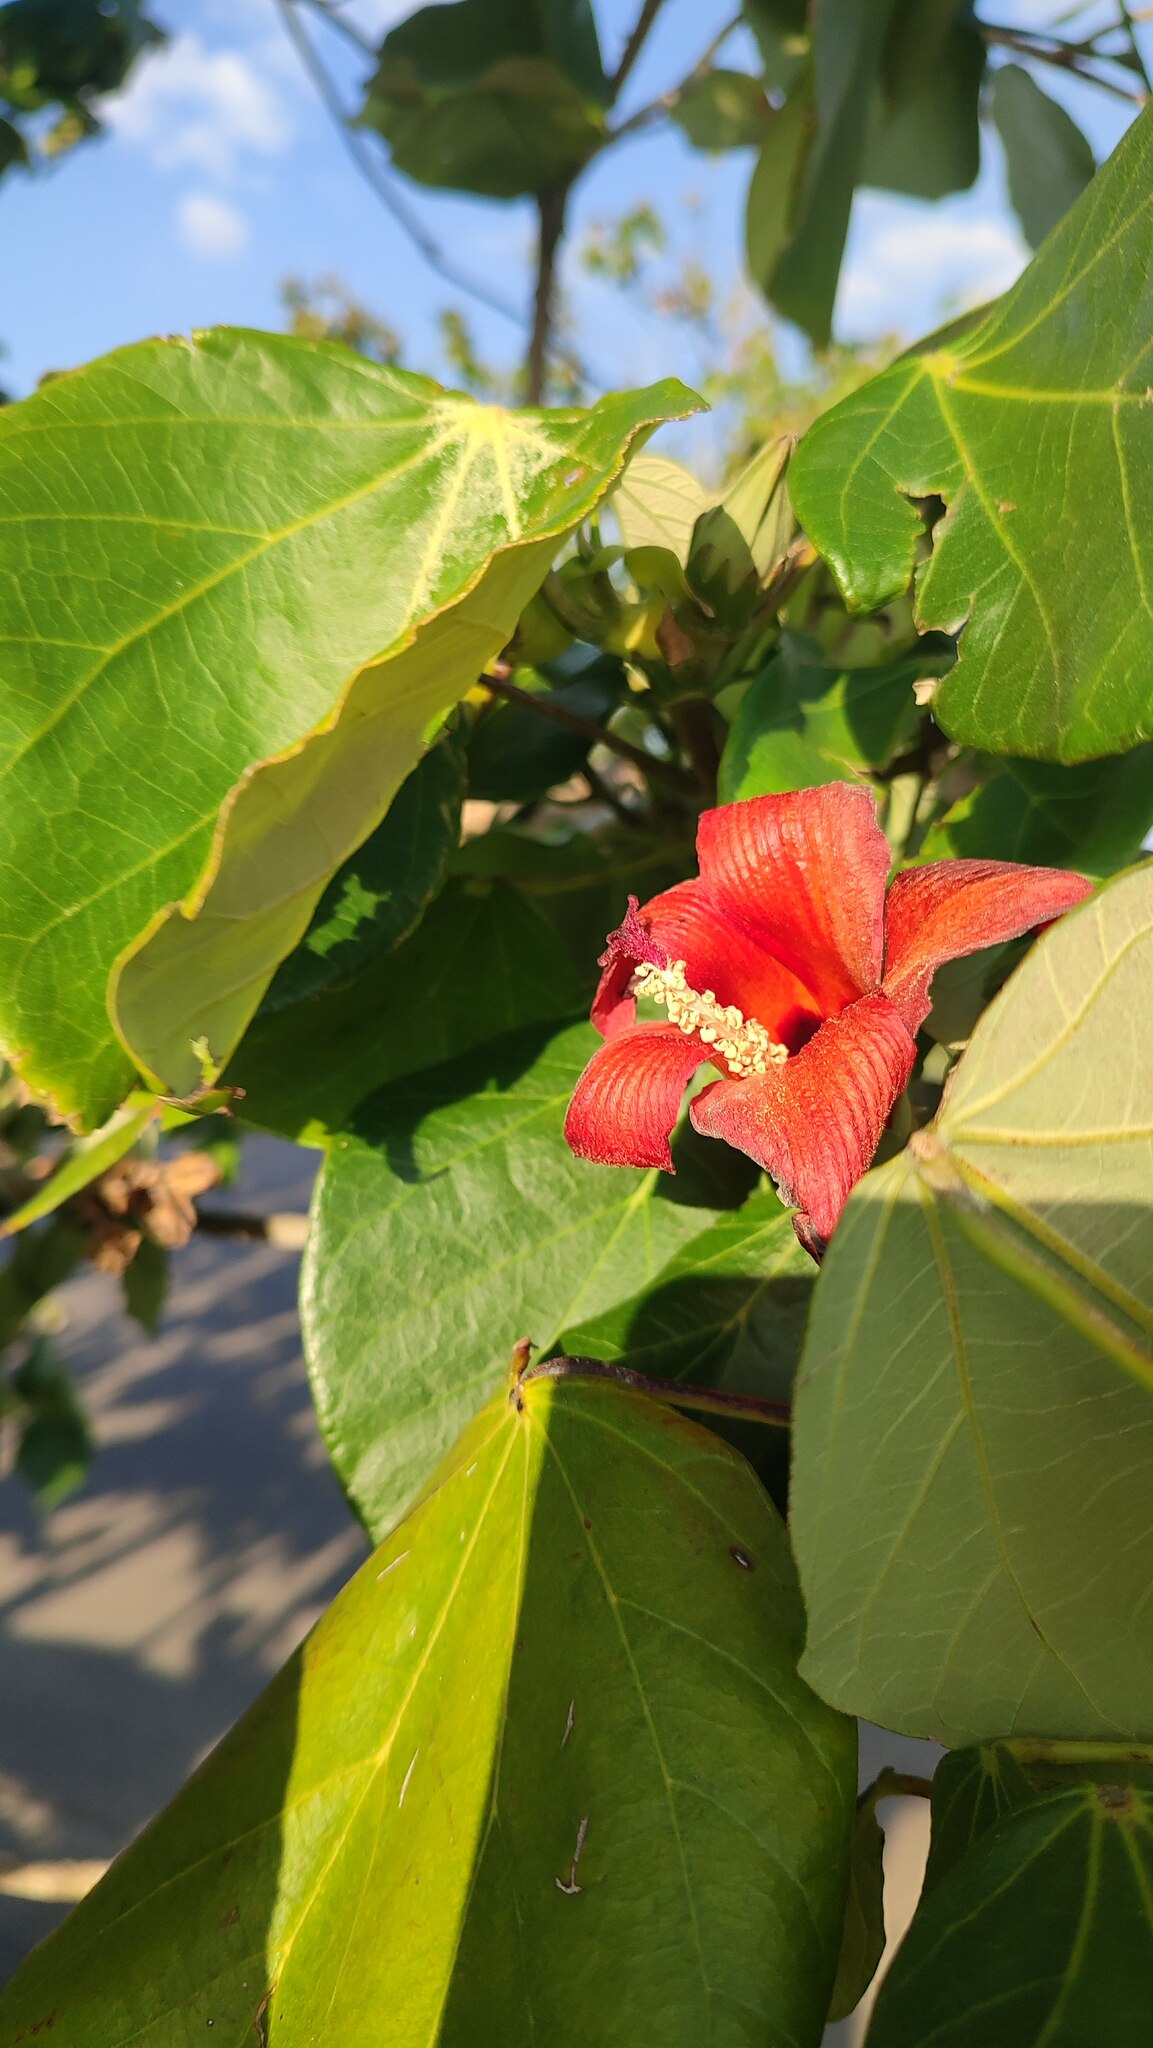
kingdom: Plantae
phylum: Tracheophyta
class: Magnoliopsida
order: Malvales
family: Malvaceae
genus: Talipariti
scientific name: Talipariti
